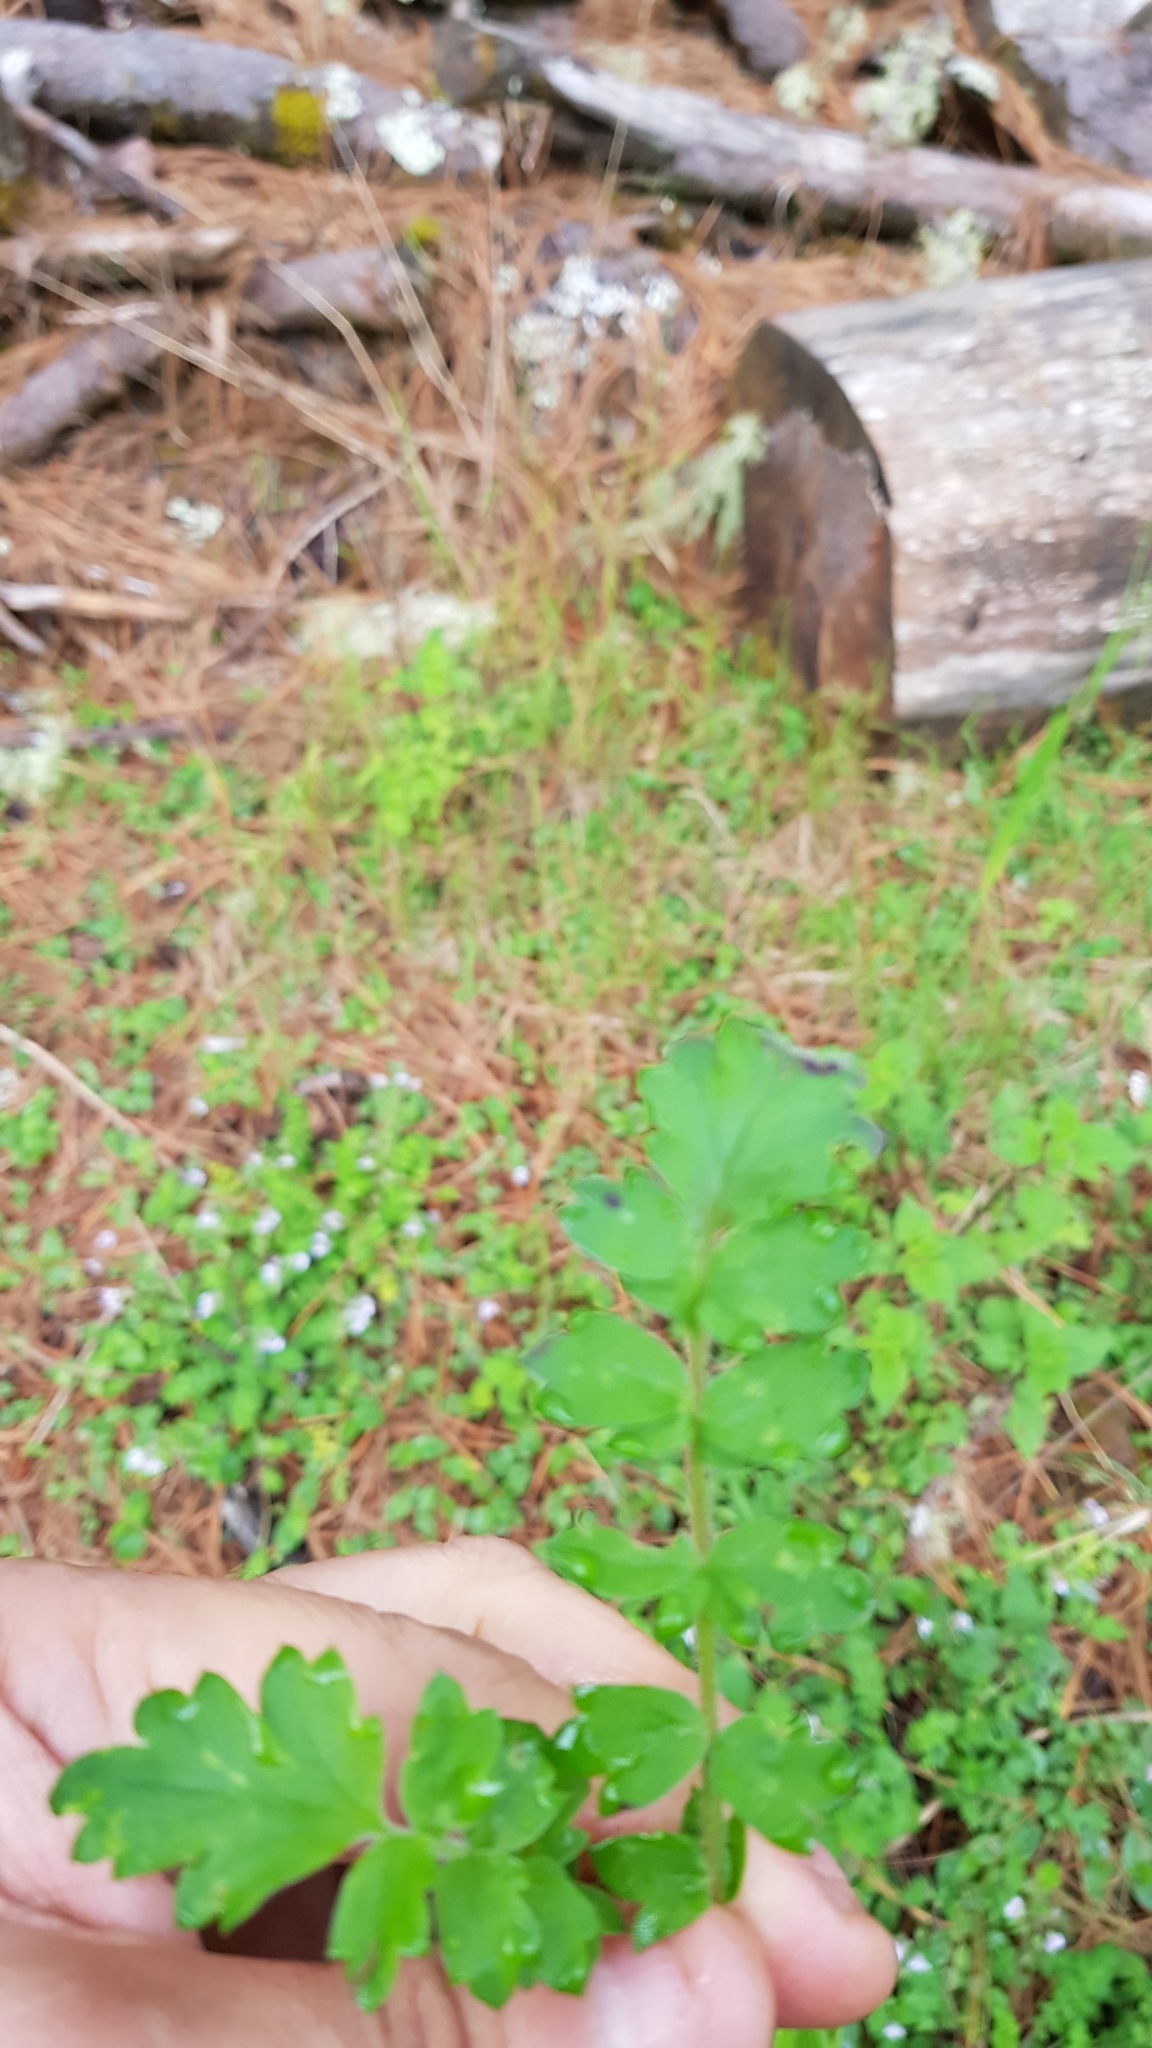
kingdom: Plantae
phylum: Tracheophyta
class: Magnoliopsida
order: Boraginales
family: Hydrophyllaceae
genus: Phacelia
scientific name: Phacelia platycarpa
